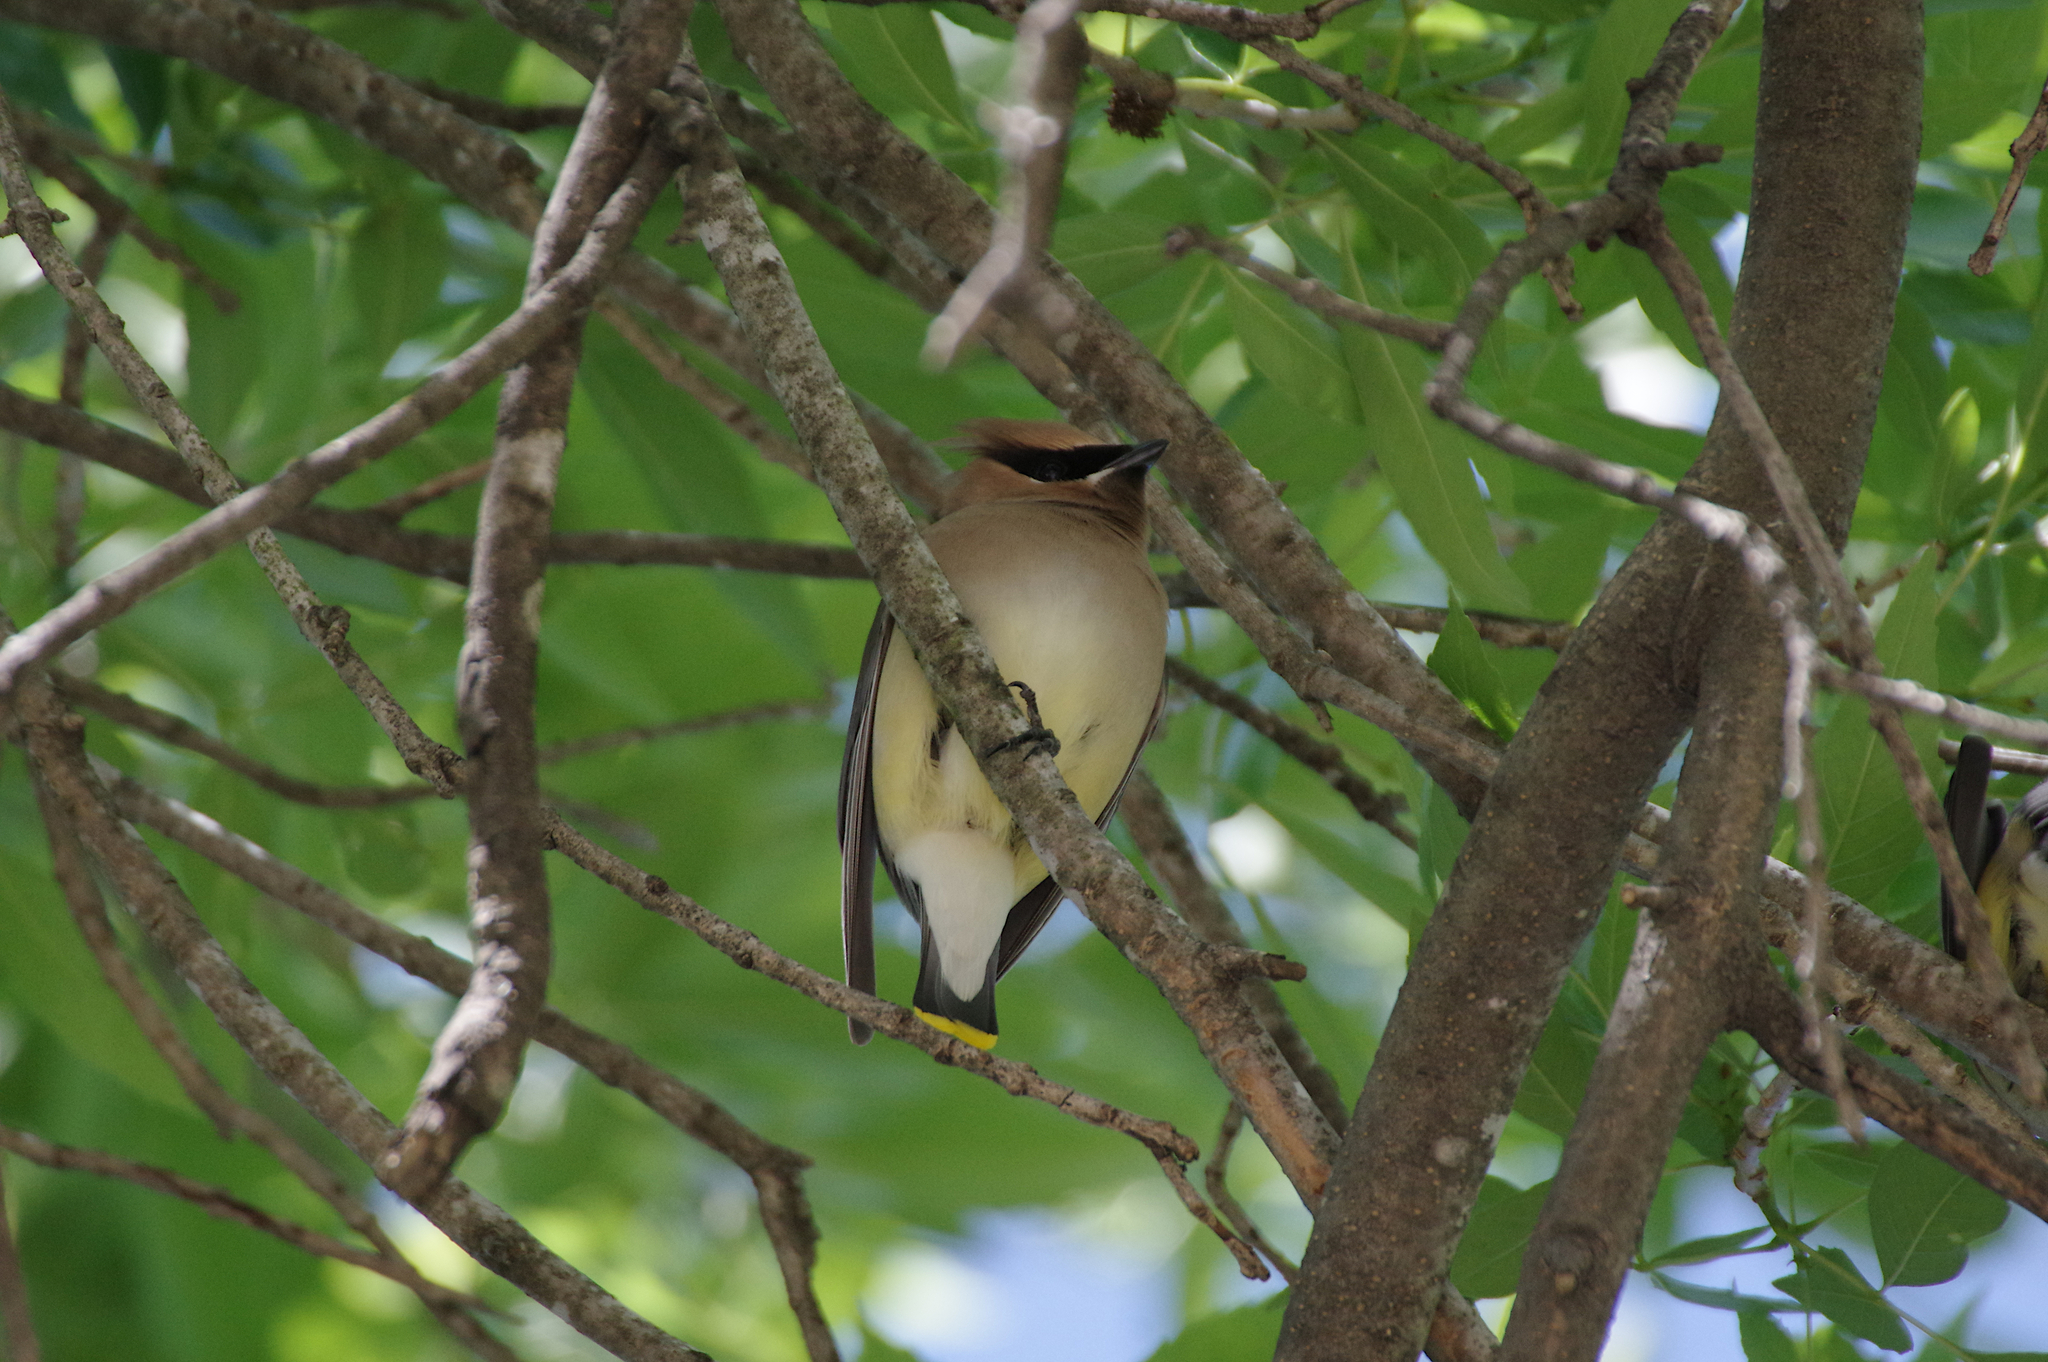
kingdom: Animalia
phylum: Chordata
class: Aves
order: Passeriformes
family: Bombycillidae
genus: Bombycilla
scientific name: Bombycilla cedrorum
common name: Cedar waxwing
